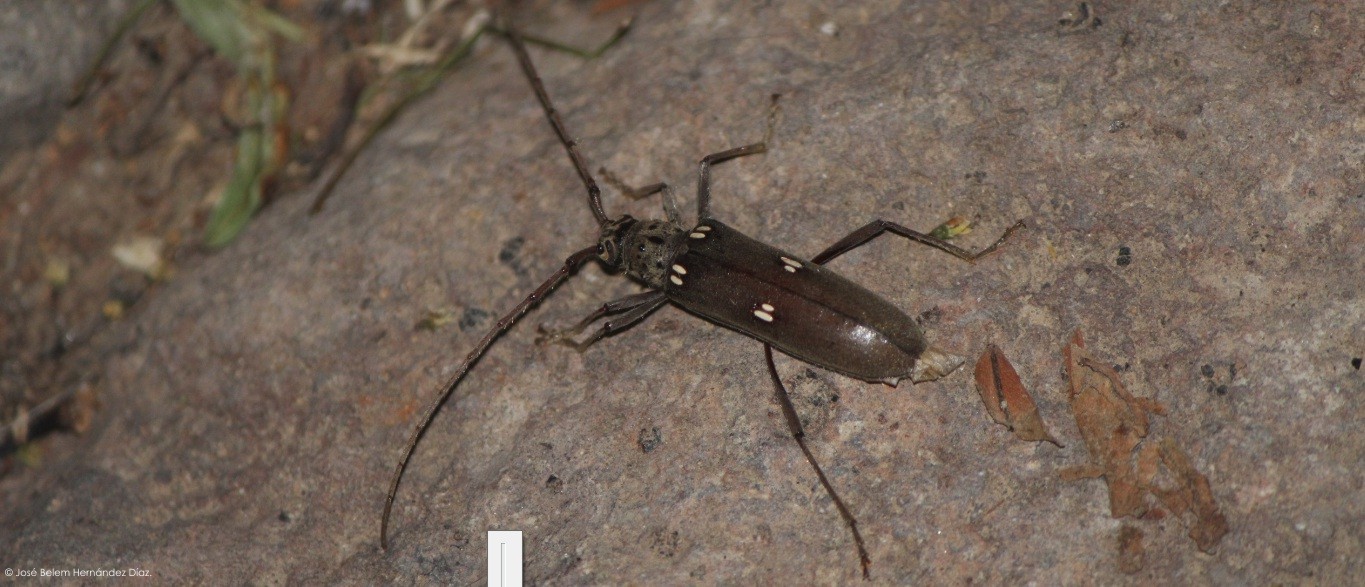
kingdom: Animalia
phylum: Arthropoda
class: Insecta
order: Coleoptera
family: Cerambycidae
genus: Susuacanga
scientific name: Susuacanga patruelis
